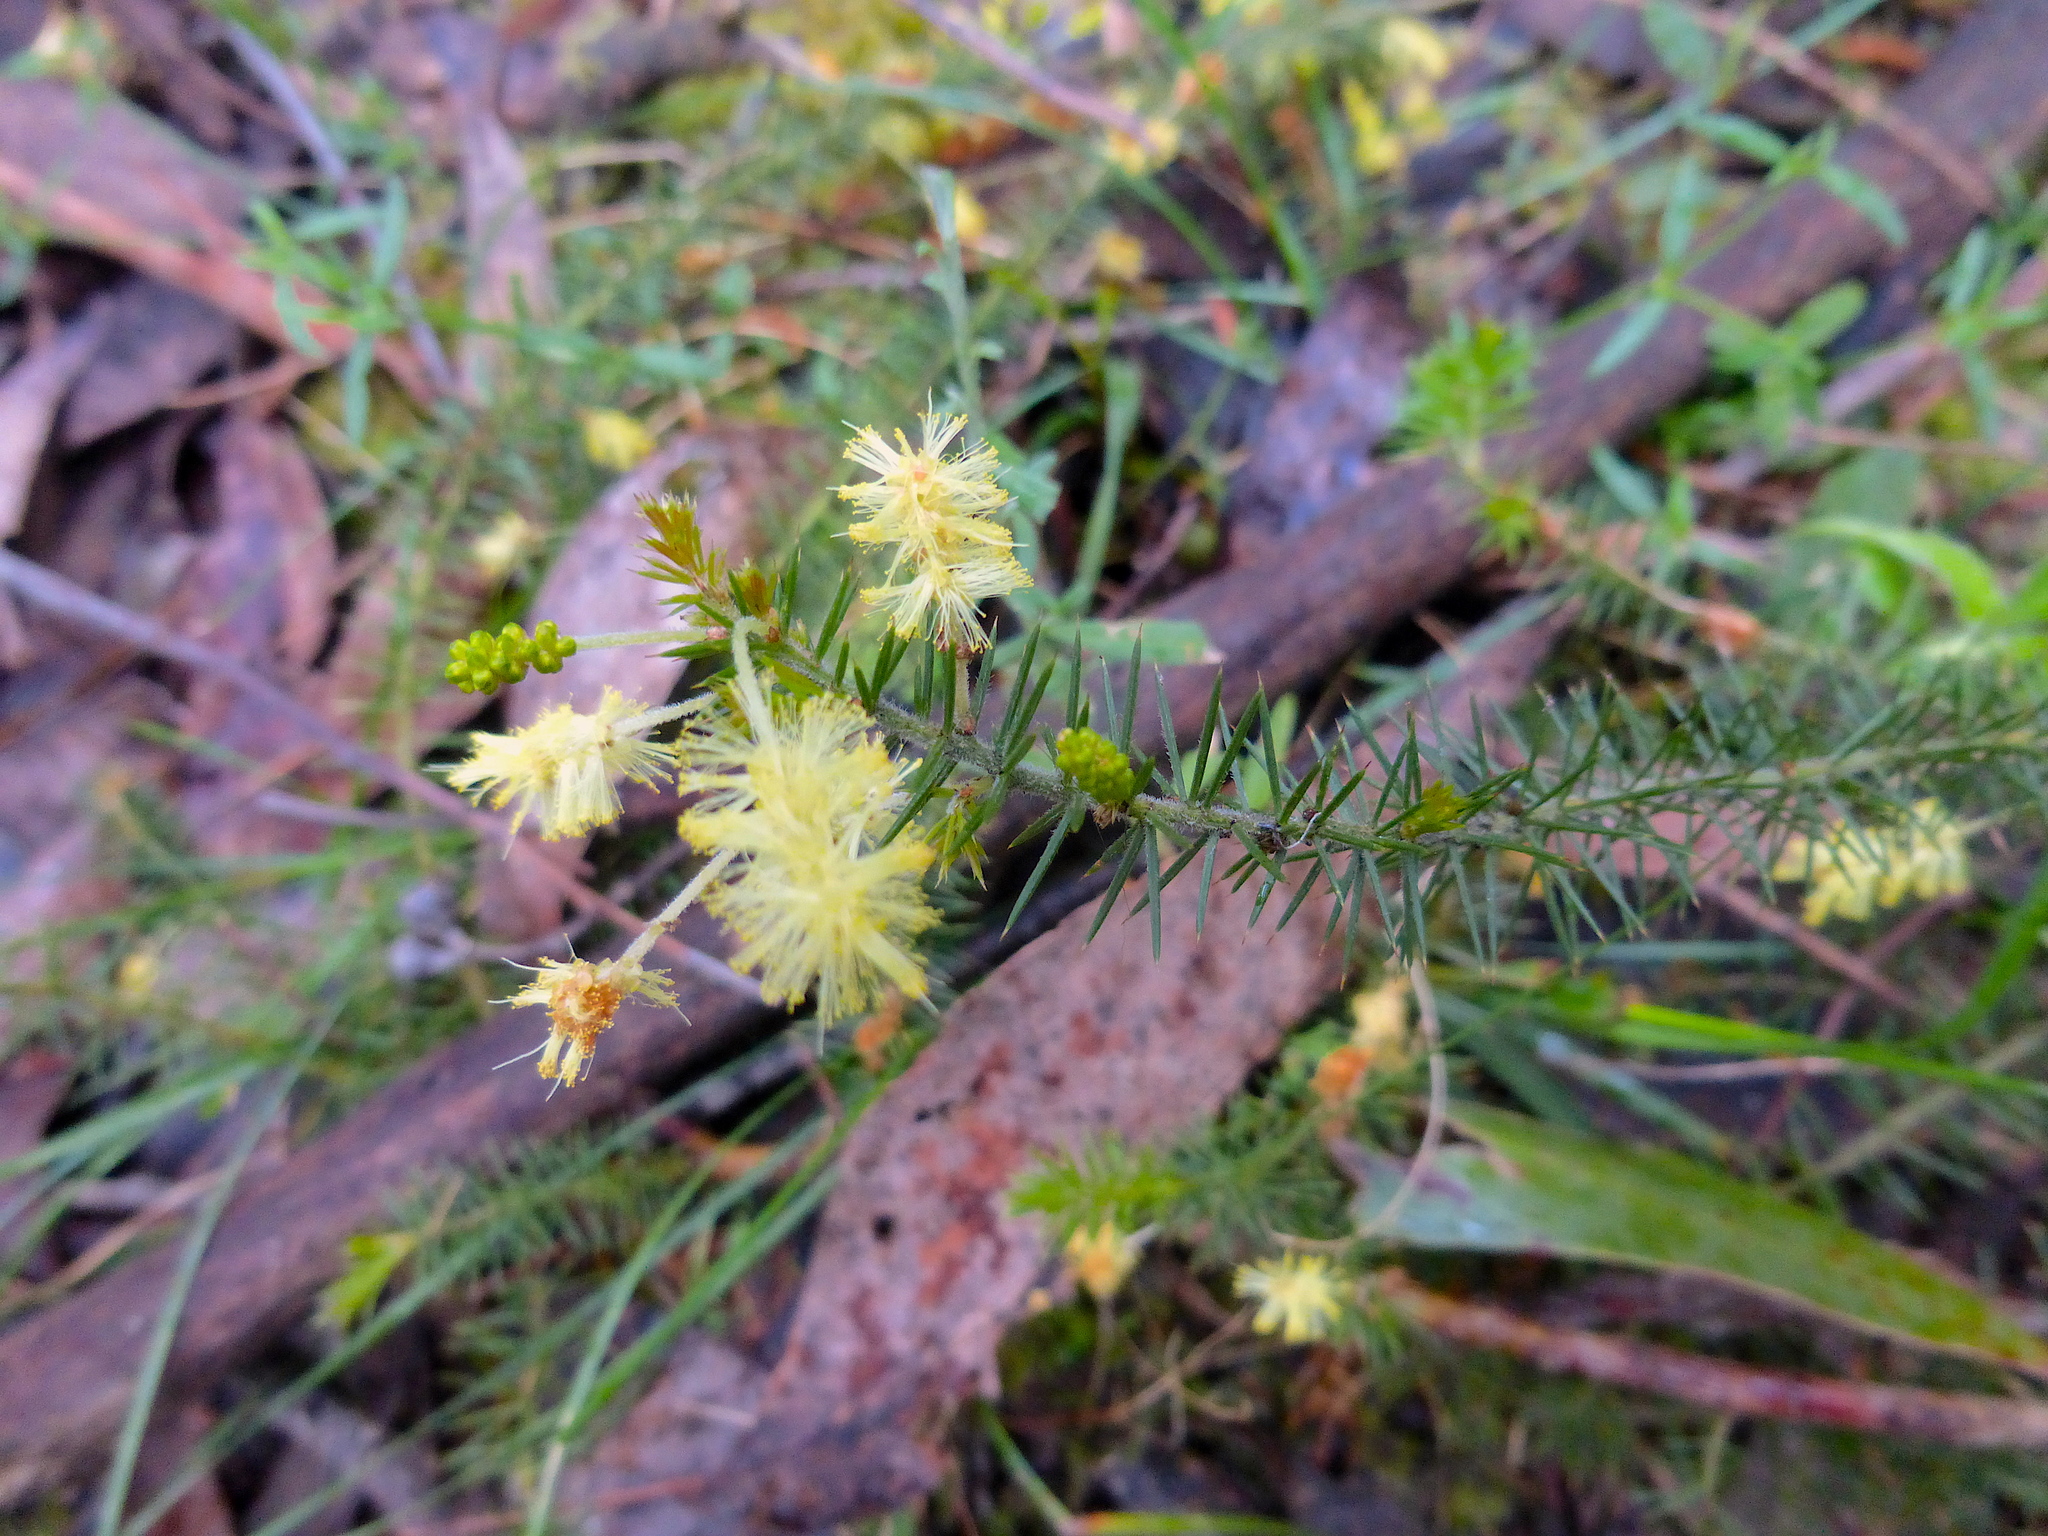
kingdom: Plantae
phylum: Tracheophyta
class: Magnoliopsida
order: Fabales
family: Fabaceae
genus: Acacia
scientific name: Acacia verticillata
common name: Prickly moses
